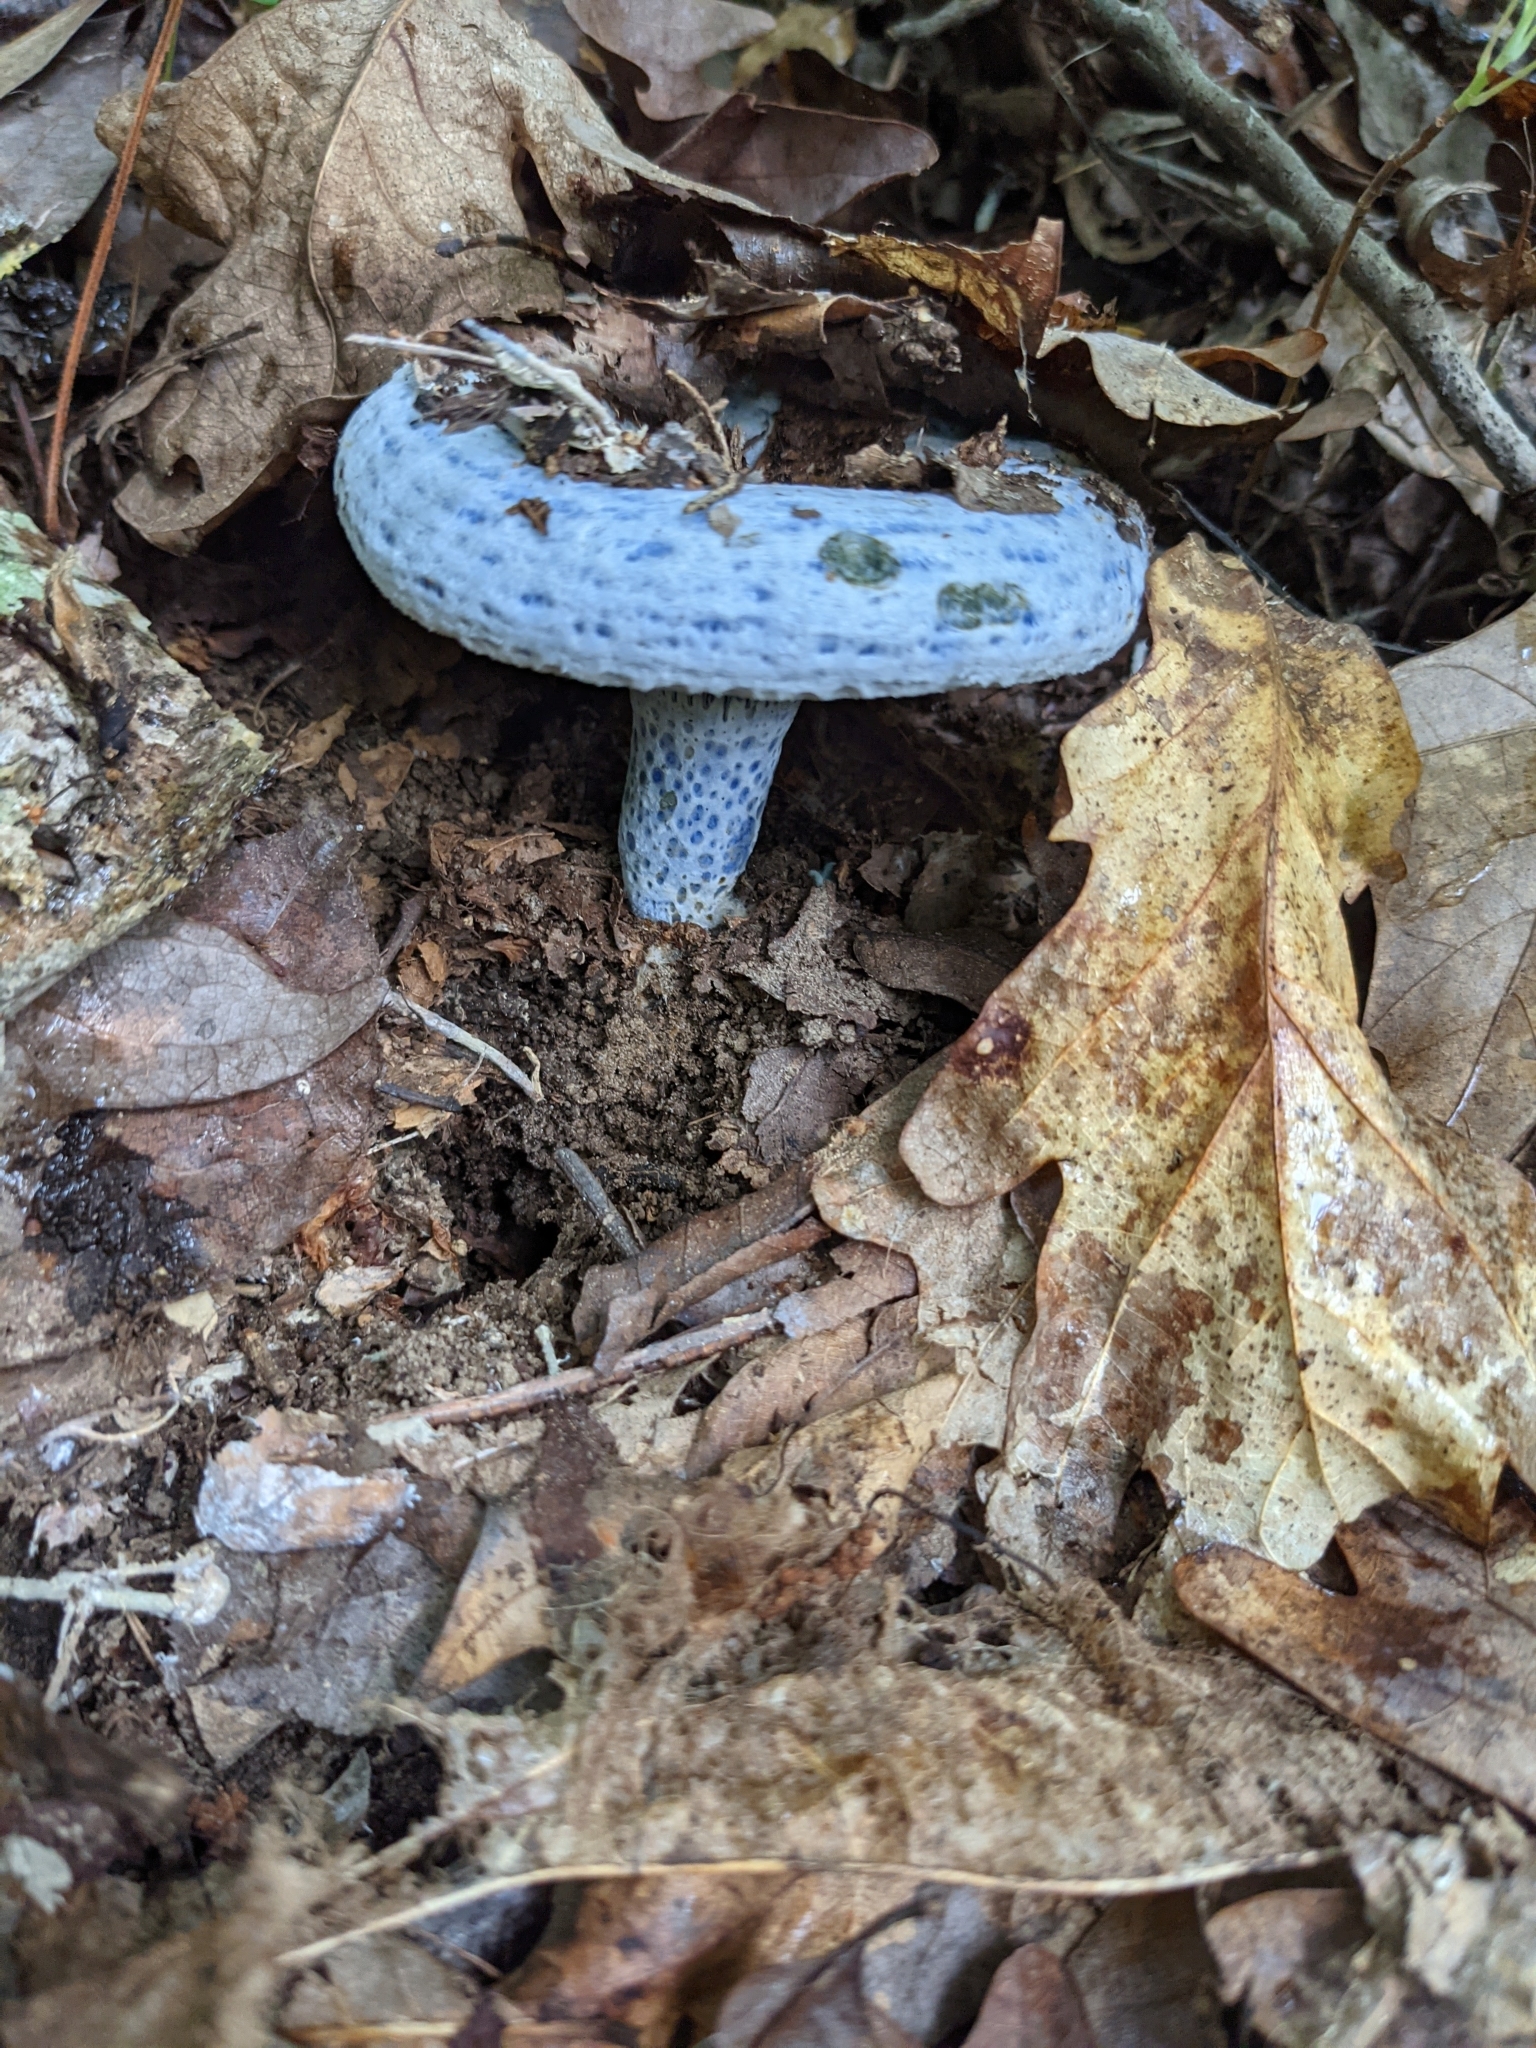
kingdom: Fungi
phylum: Basidiomycota
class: Agaricomycetes
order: Russulales
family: Russulaceae
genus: Lactarius
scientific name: Lactarius indigo
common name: Indigo milk cap
